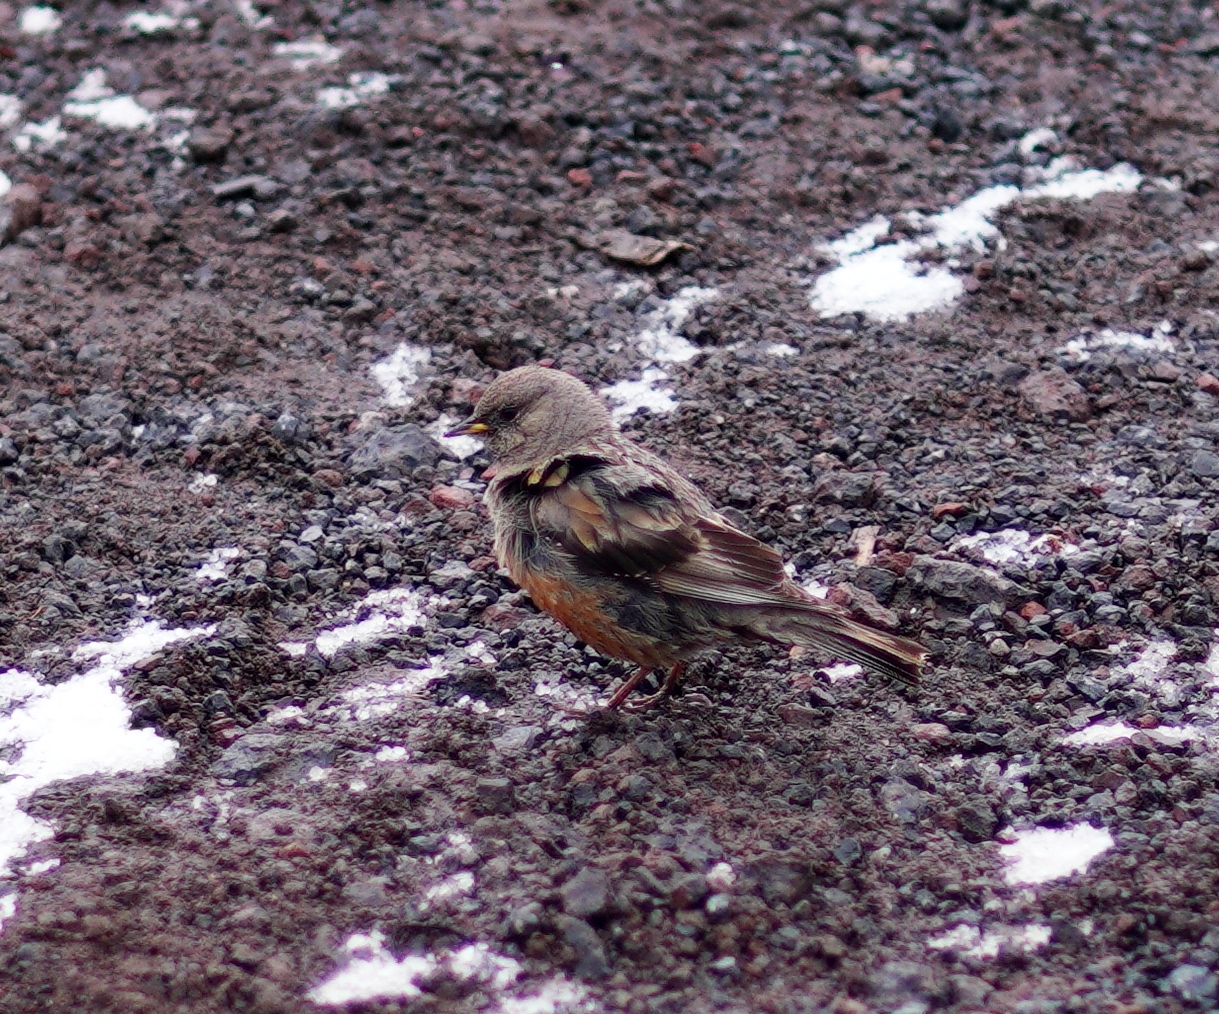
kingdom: Animalia
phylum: Chordata
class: Aves
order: Passeriformes
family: Prunellidae
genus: Prunella
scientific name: Prunella collaris
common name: Alpine accentor
